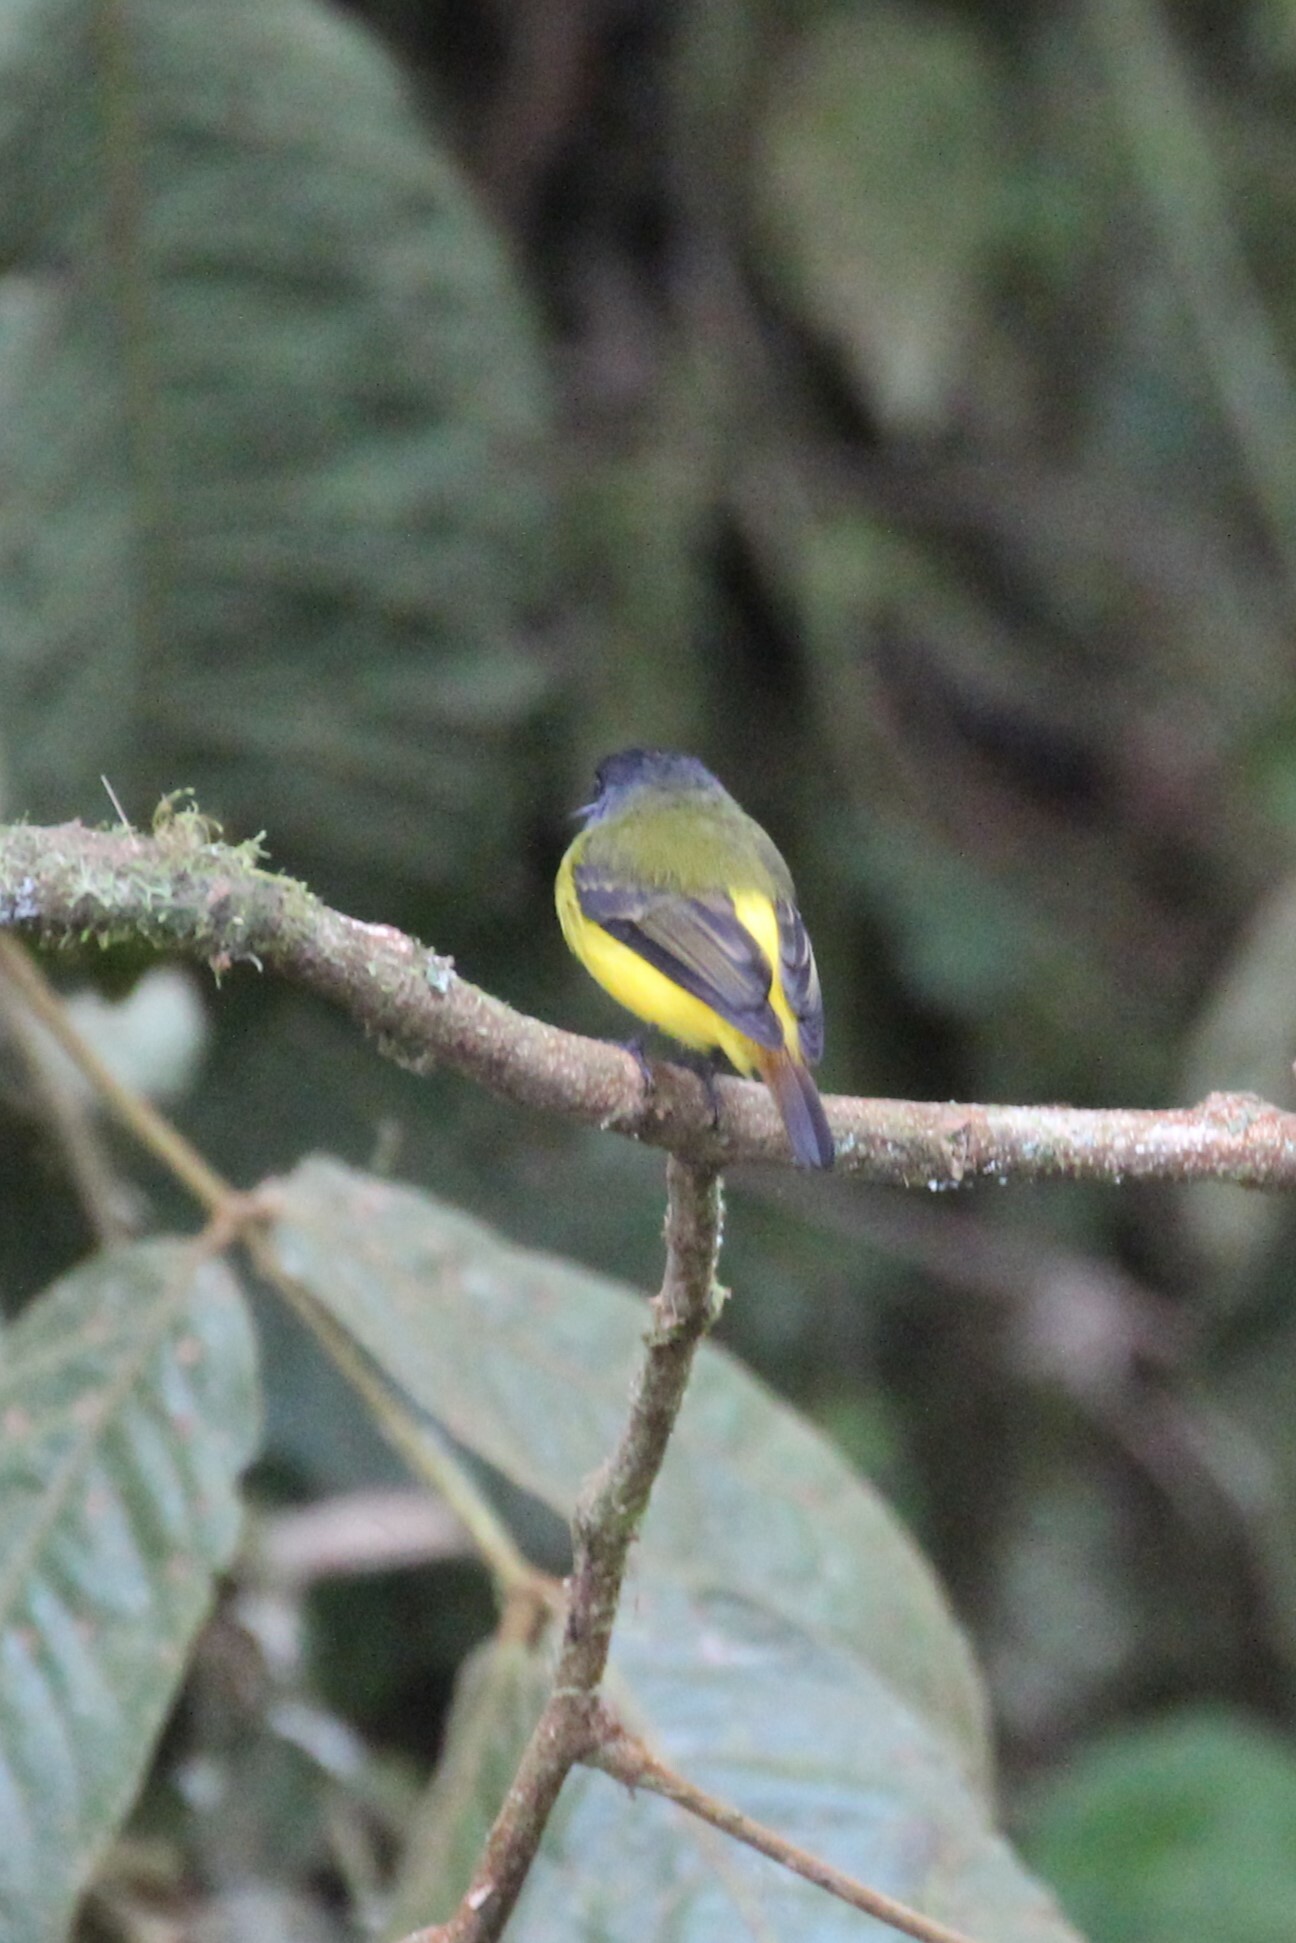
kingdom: Animalia
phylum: Chordata
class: Aves
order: Passeriformes
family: Tyrannidae
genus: Myiotriccus
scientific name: Myiotriccus ornatus
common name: Ornate flycatcher
